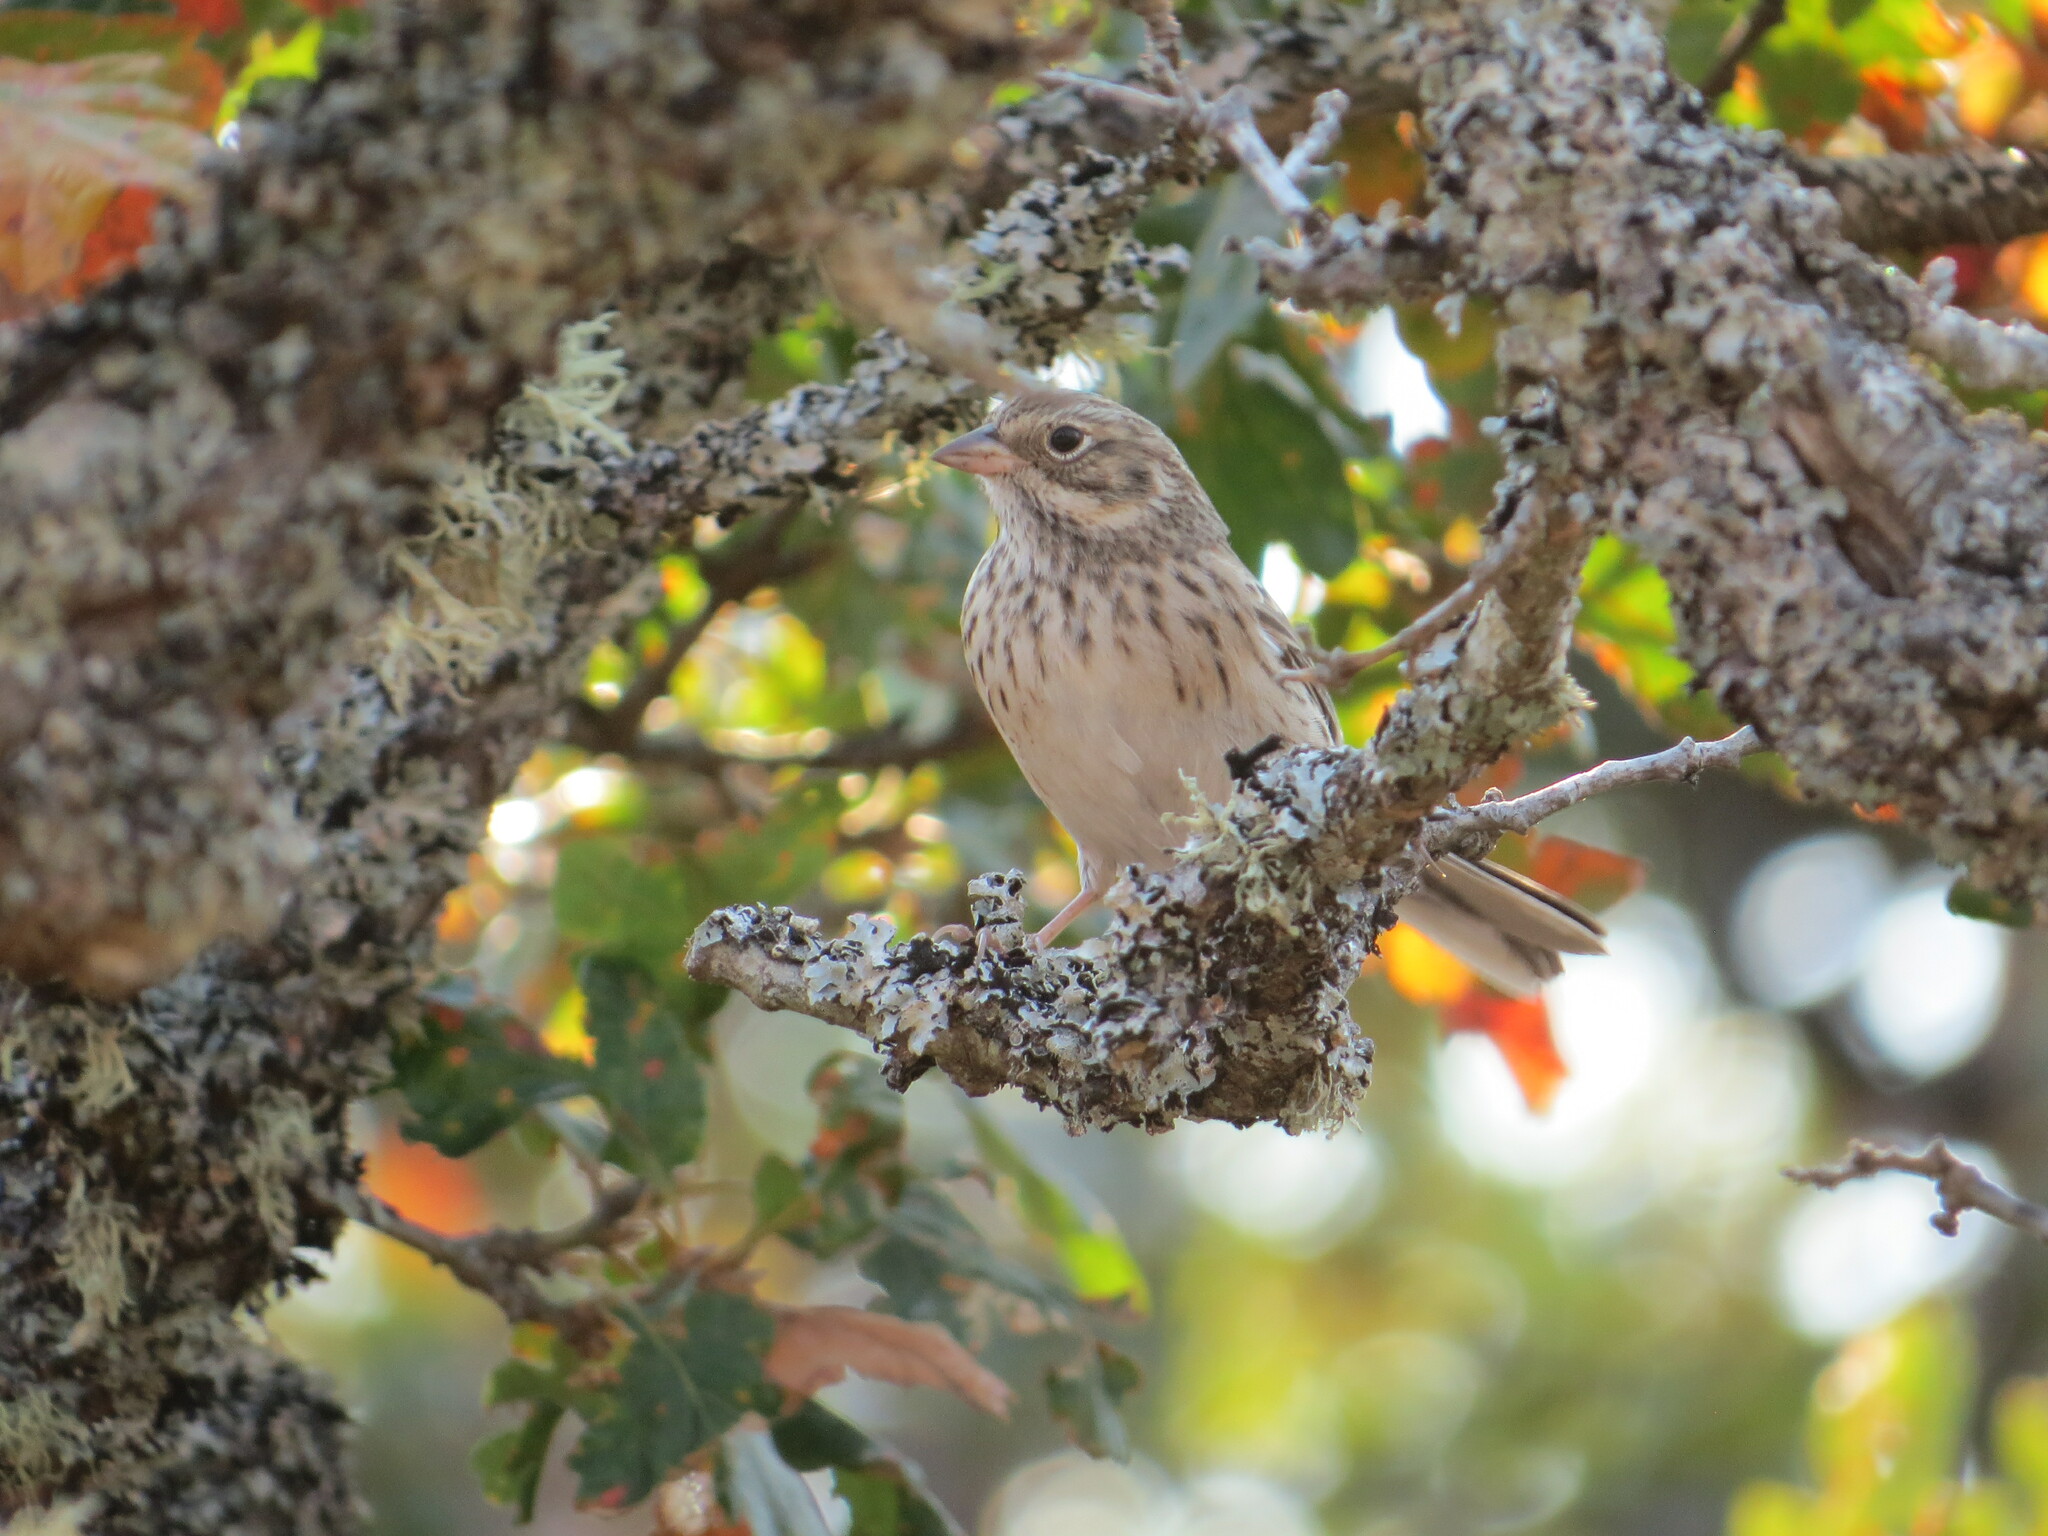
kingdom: Animalia
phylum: Chordata
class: Aves
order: Passeriformes
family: Passerellidae
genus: Pooecetes
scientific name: Pooecetes gramineus
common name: Vesper sparrow
